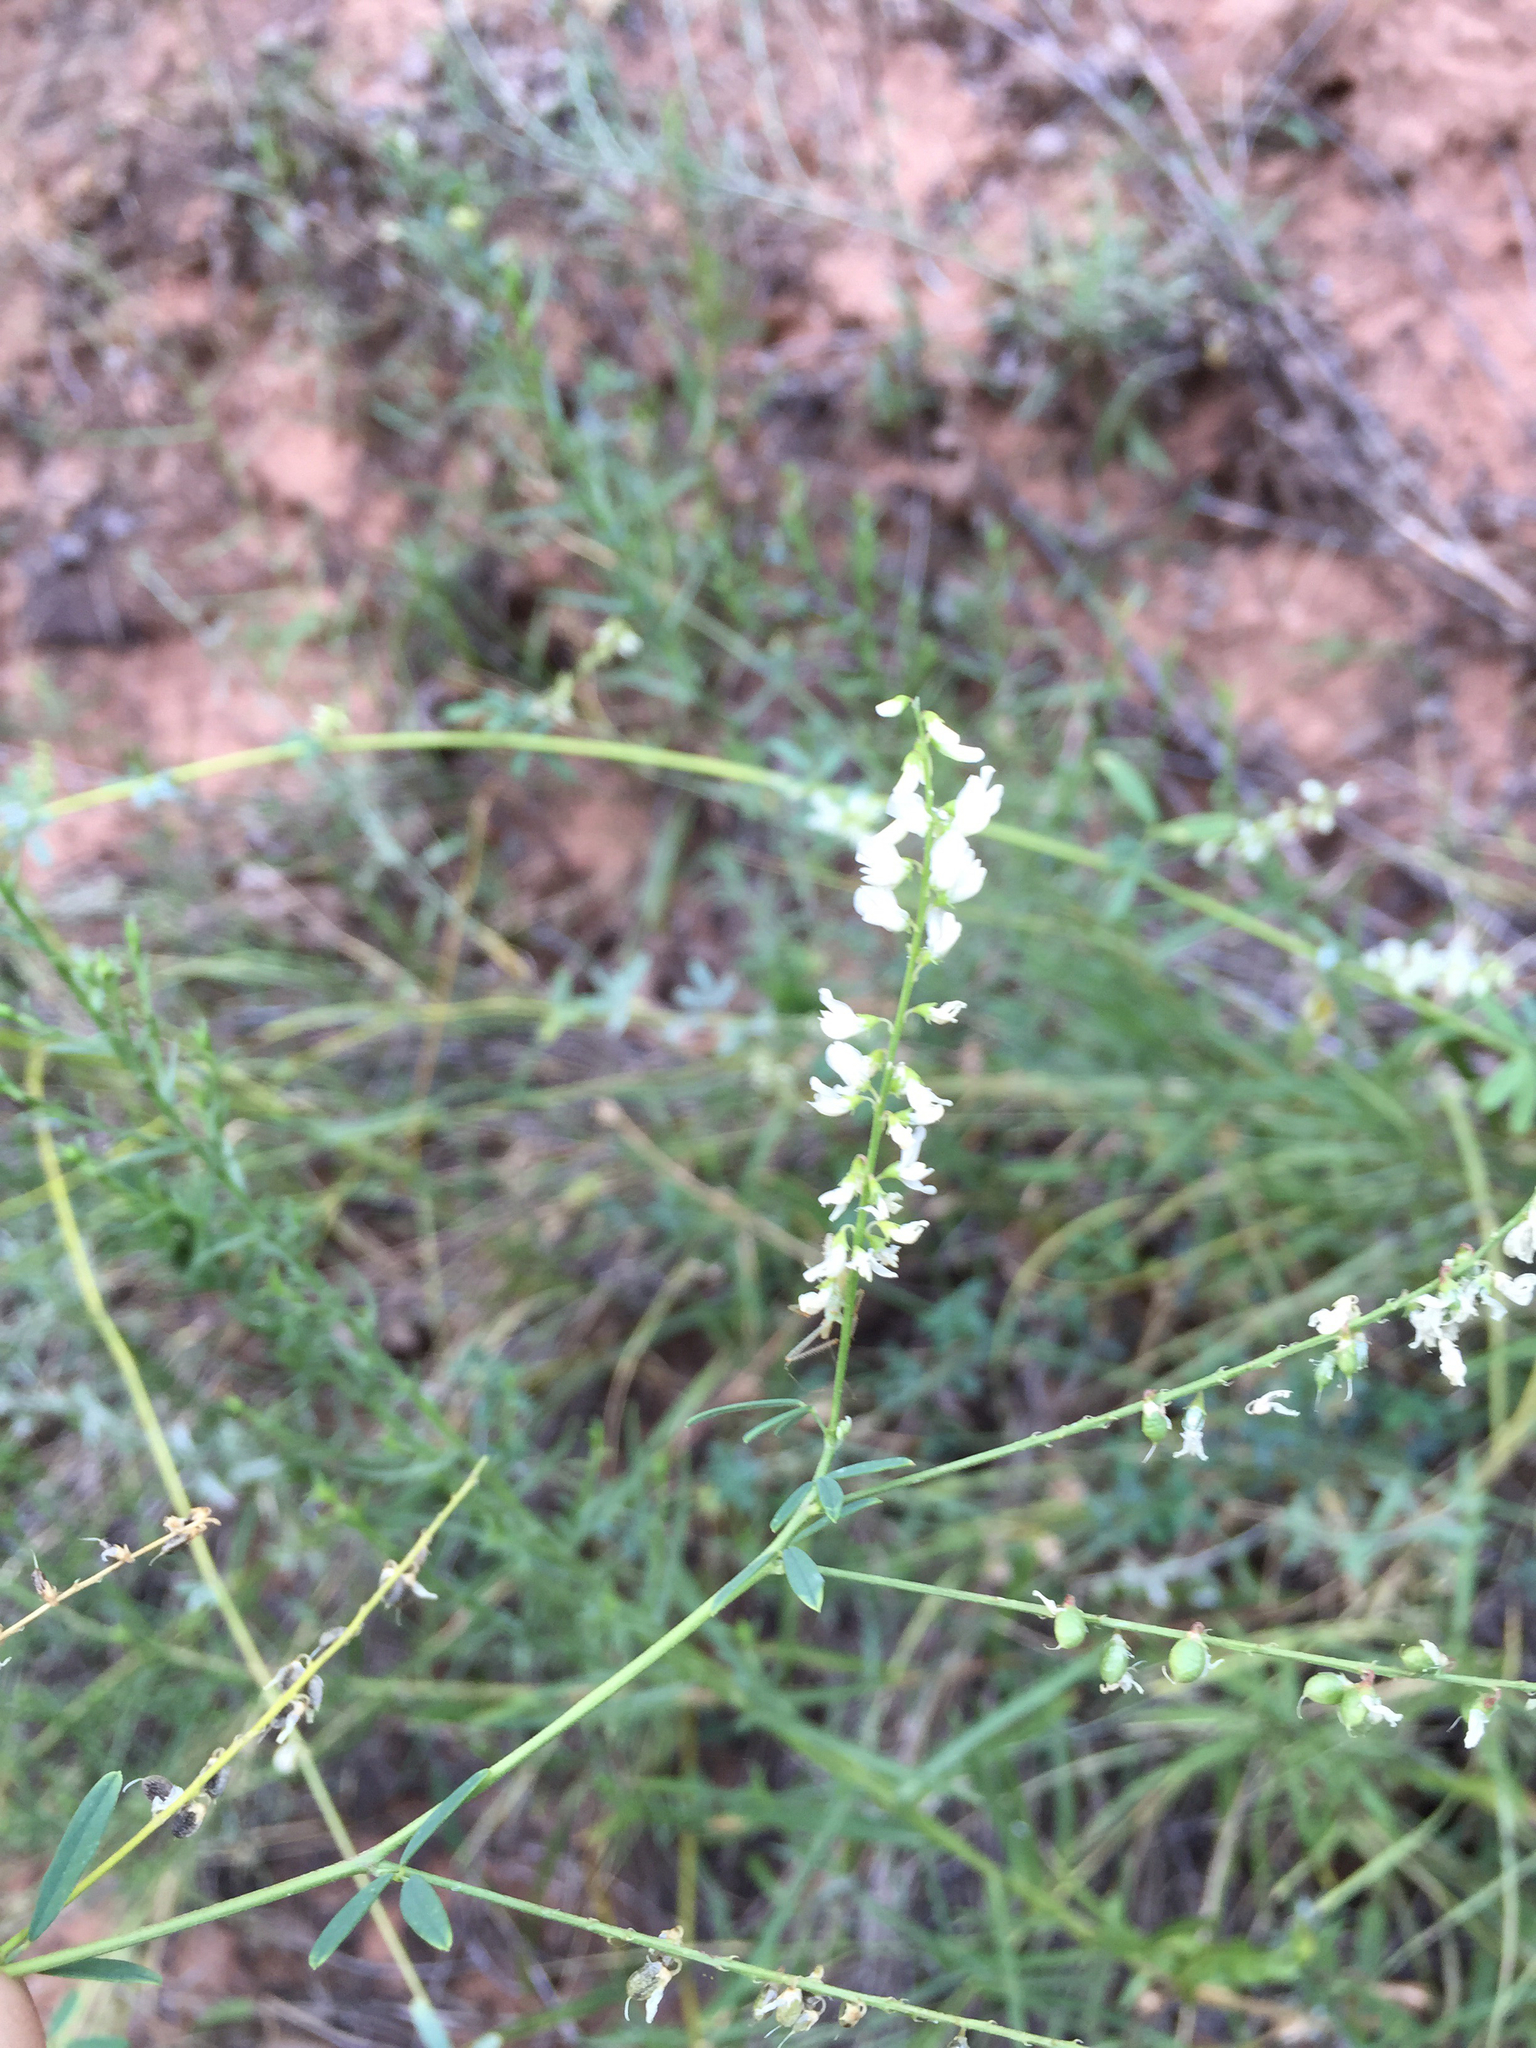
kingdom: Plantae
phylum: Tracheophyta
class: Magnoliopsida
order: Fabales
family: Fabaceae
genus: Melilotus
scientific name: Melilotus albus
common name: White melilot
